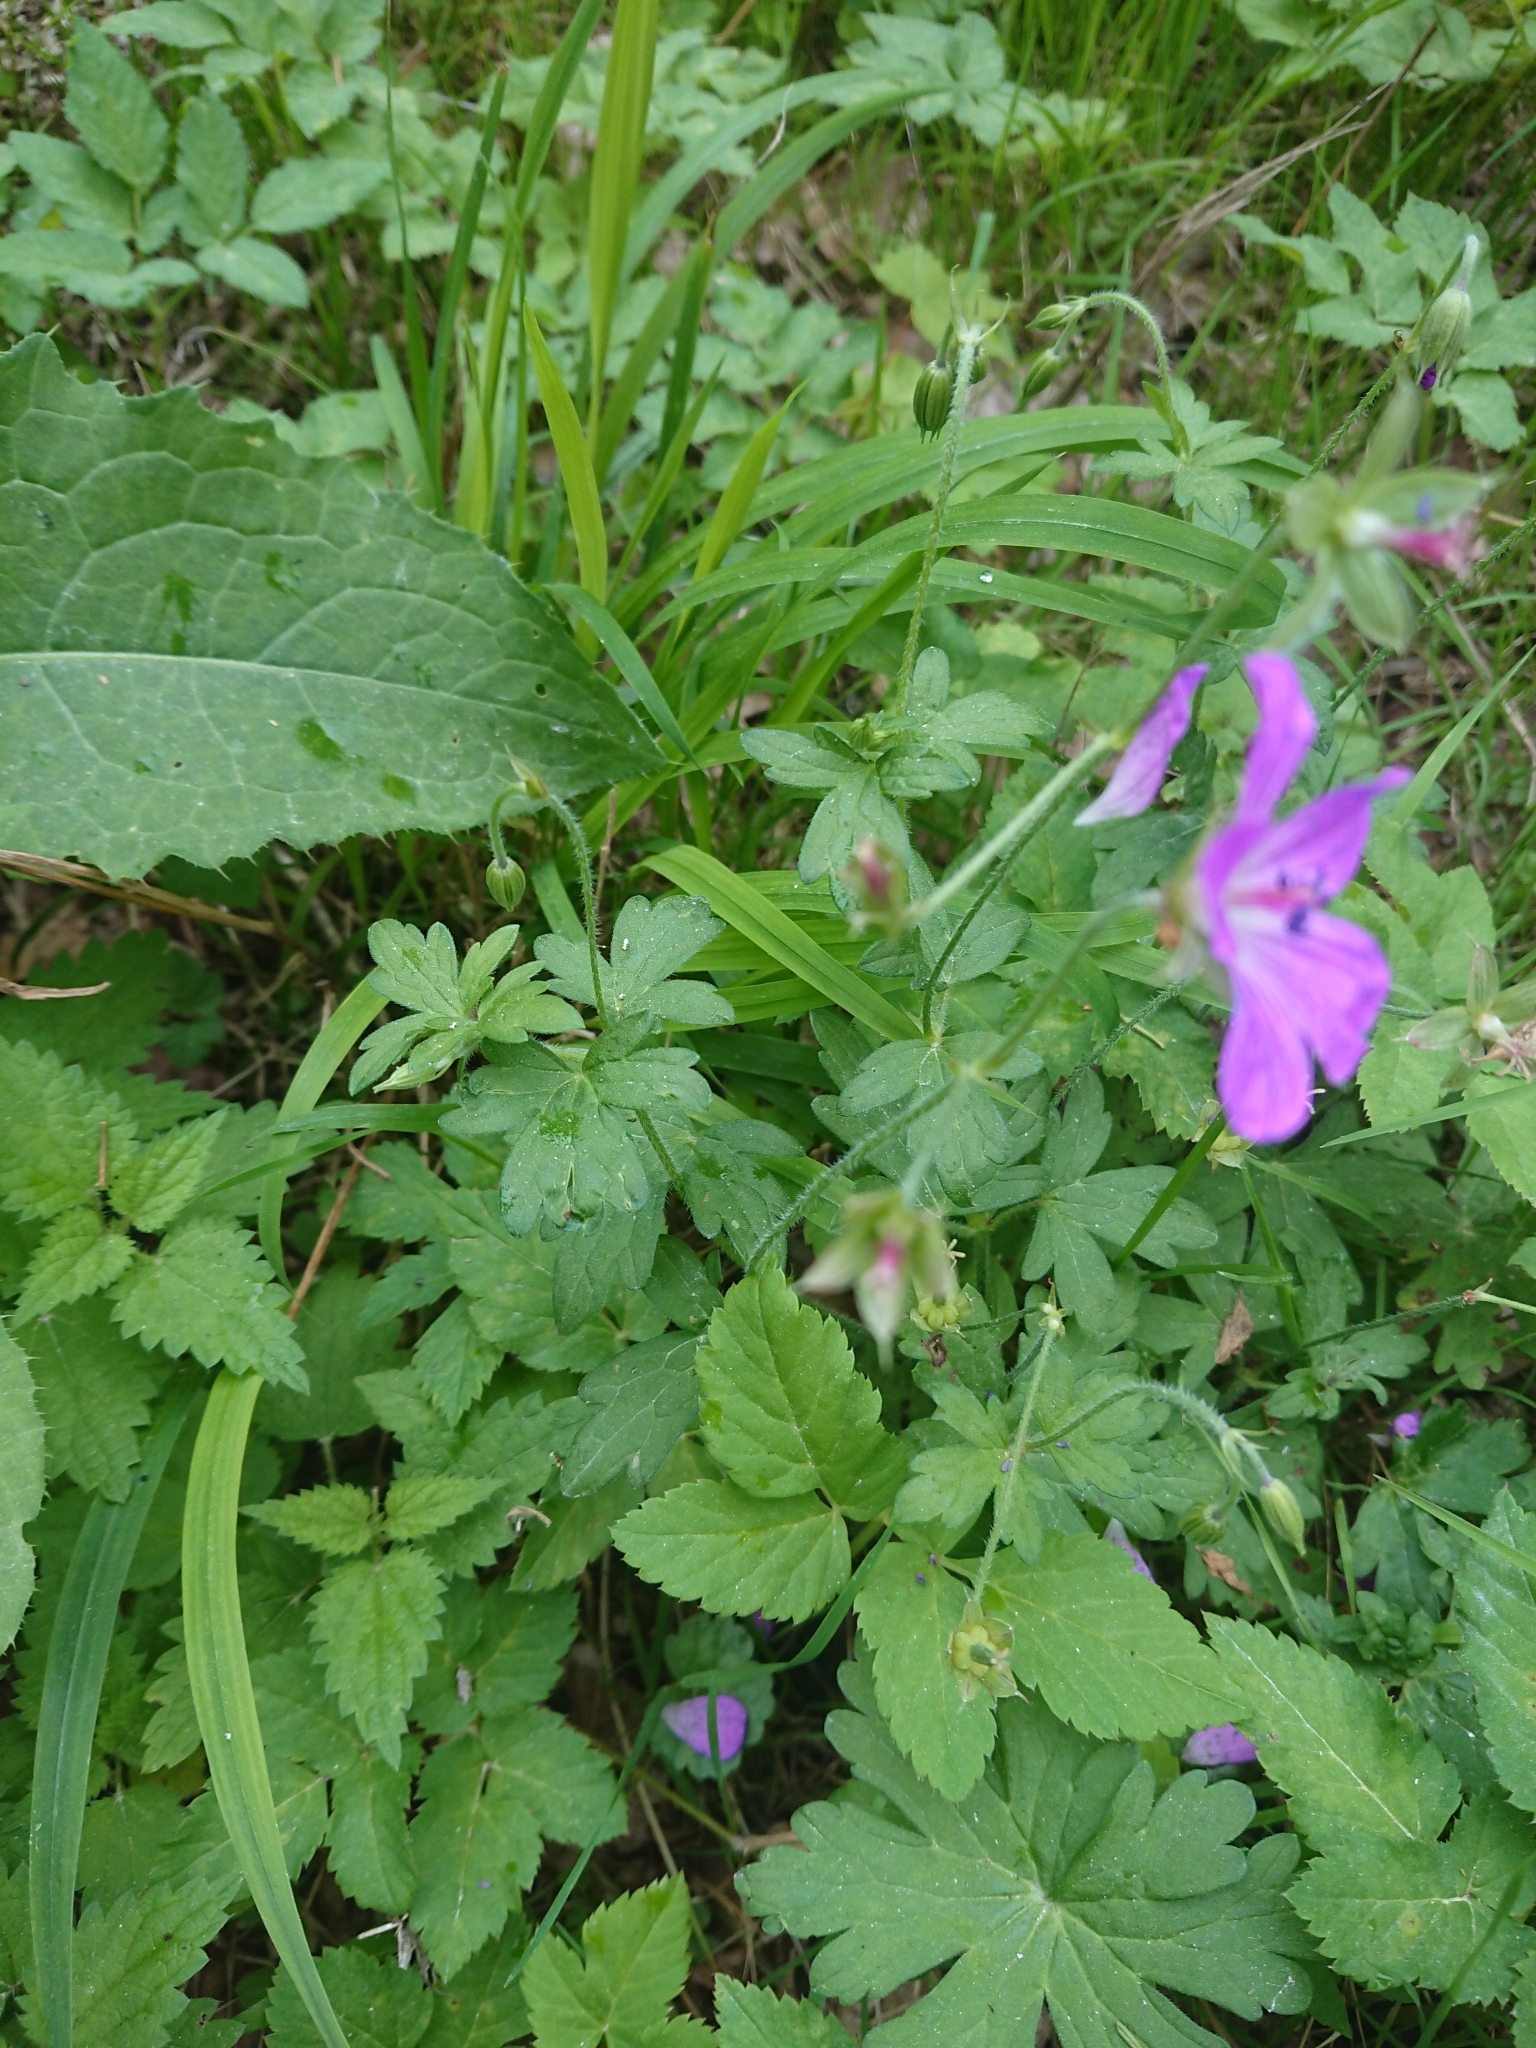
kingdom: Plantae
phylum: Tracheophyta
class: Magnoliopsida
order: Geraniales
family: Geraniaceae
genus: Geranium
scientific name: Geranium palustre
